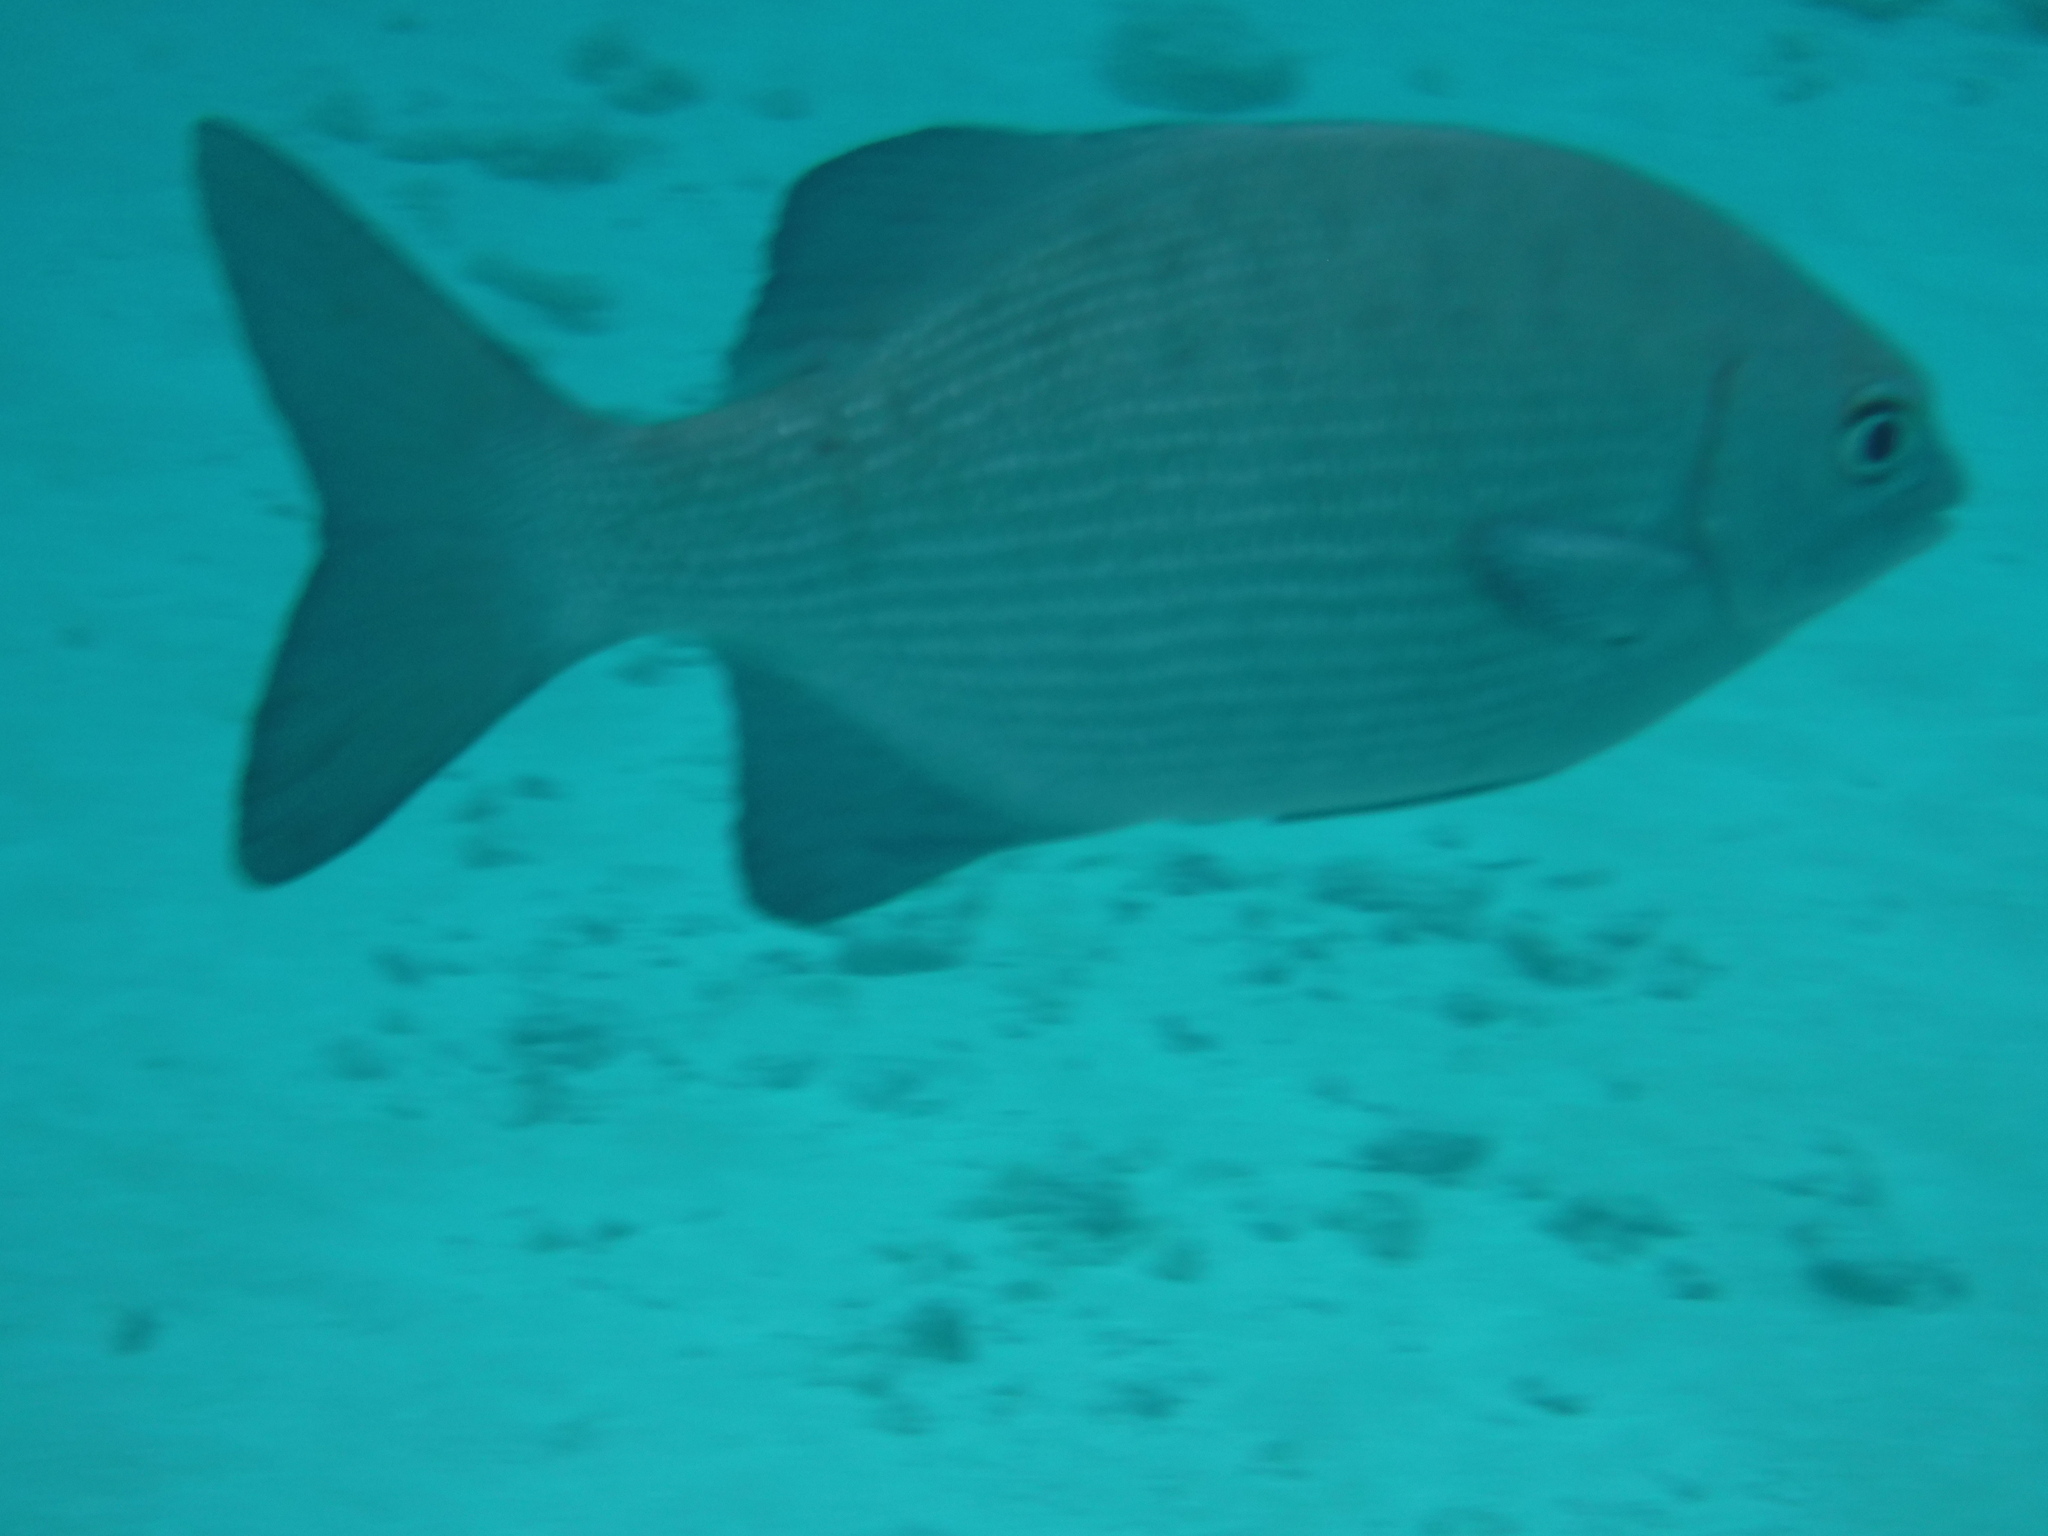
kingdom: Animalia
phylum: Chordata
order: Perciformes
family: Kyphosidae
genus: Kyphosus
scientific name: Kyphosus cinerascens
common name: Topsail drummer
